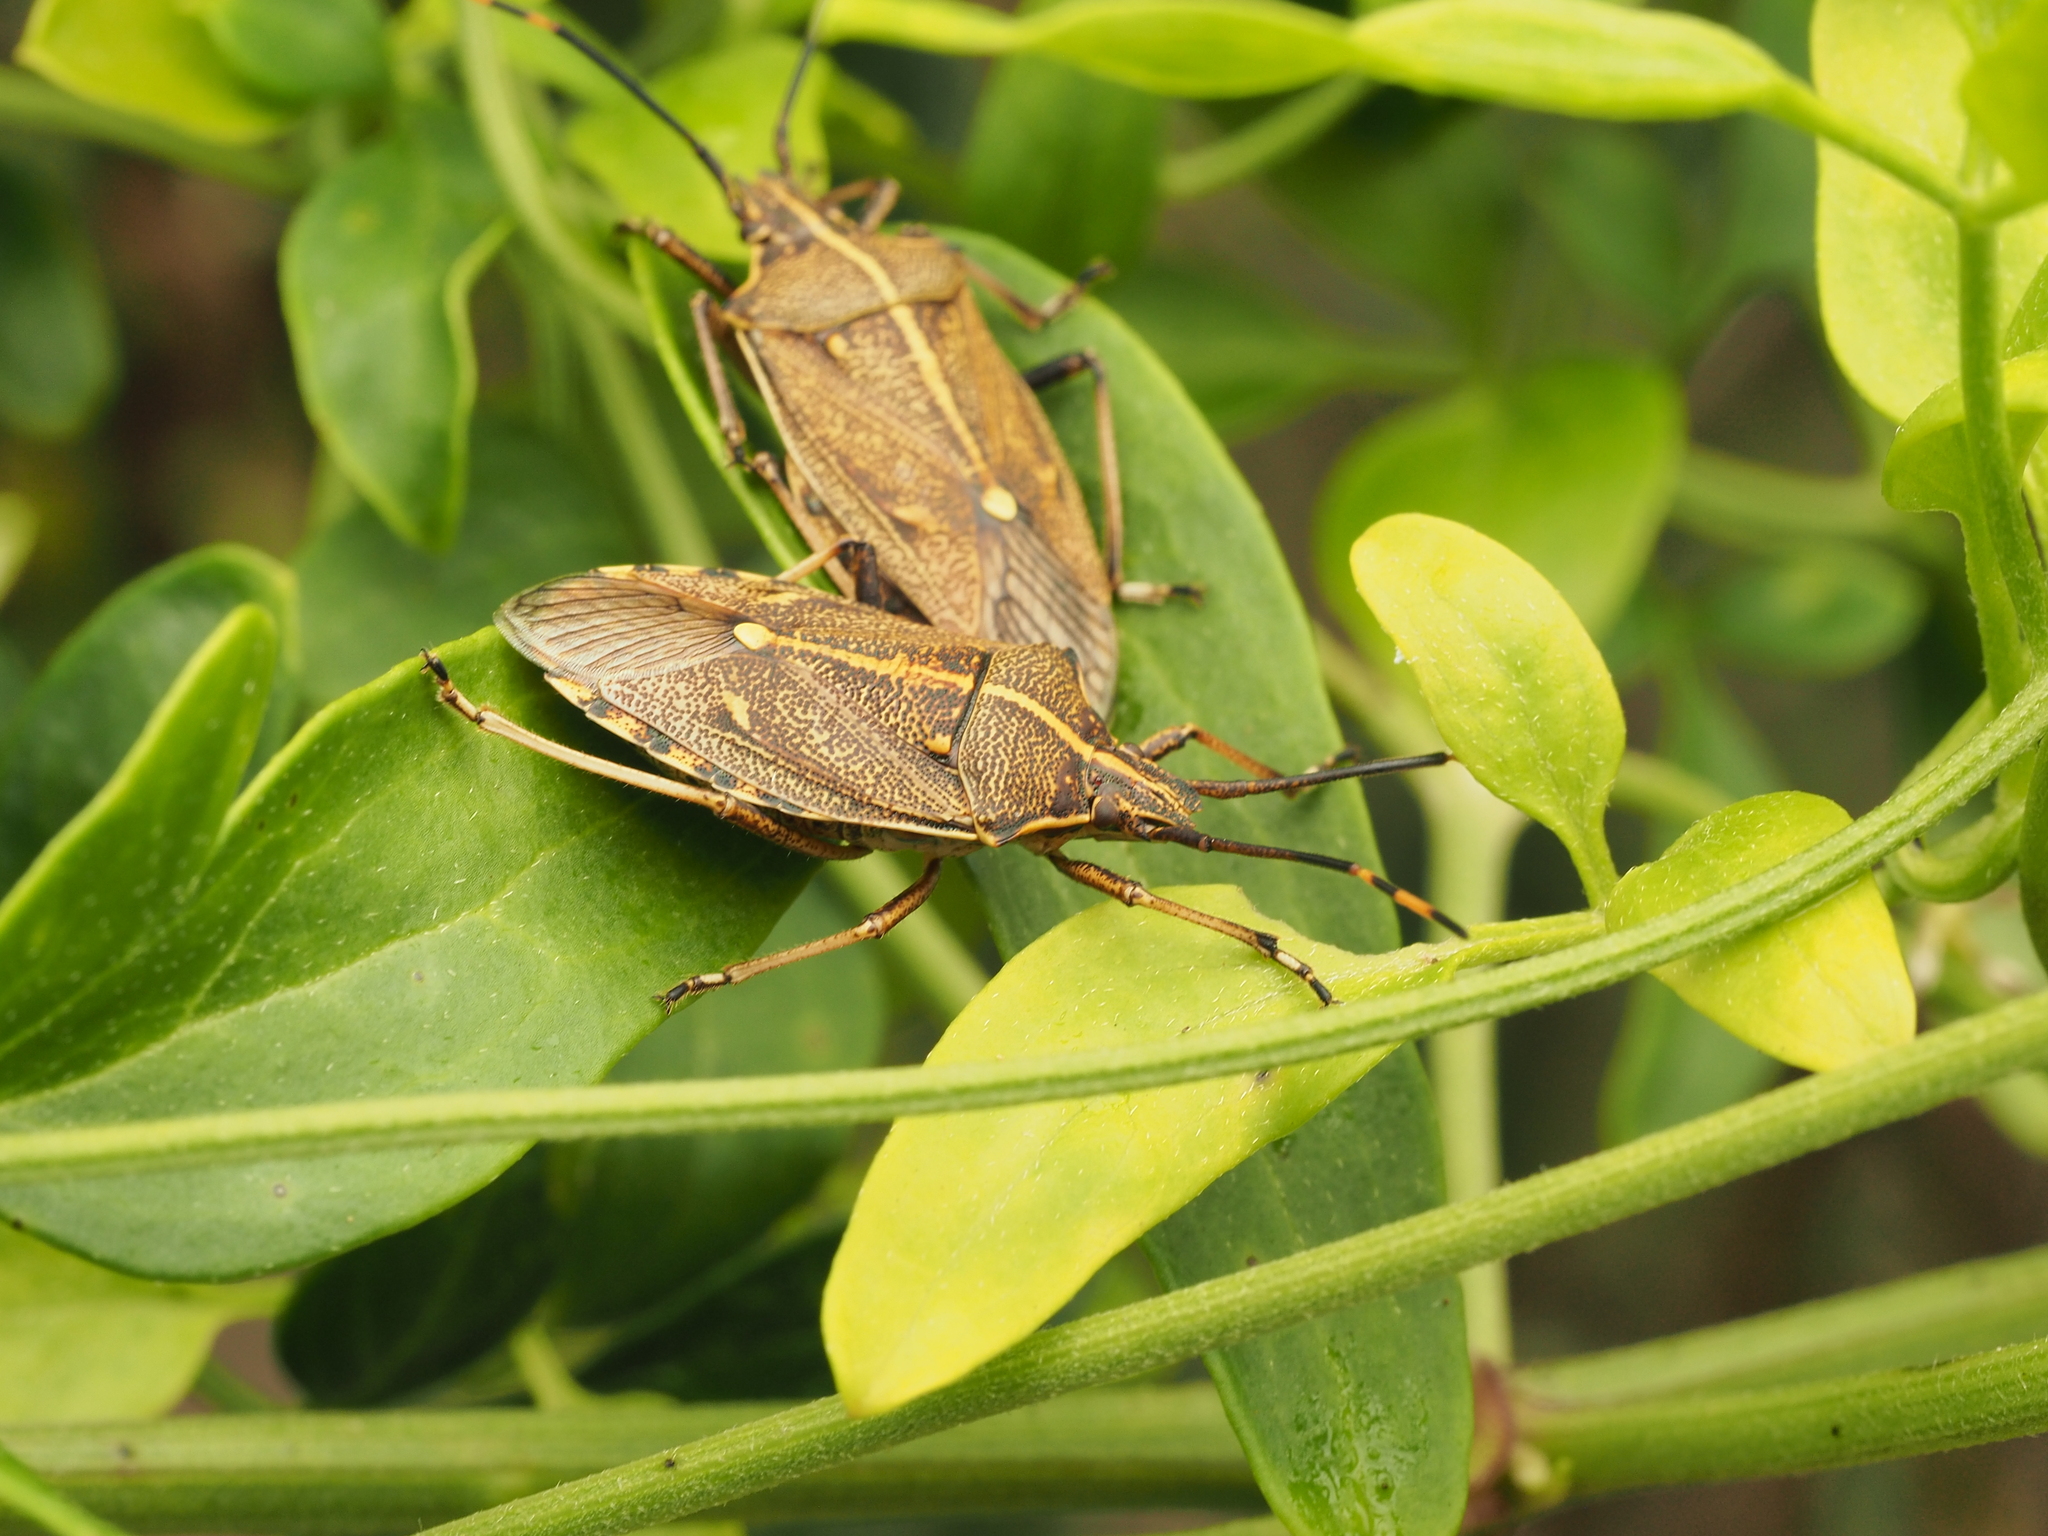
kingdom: Animalia
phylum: Arthropoda
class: Insecta
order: Hemiptera
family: Pentatomidae
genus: Omyta
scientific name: Omyta centrolineata
